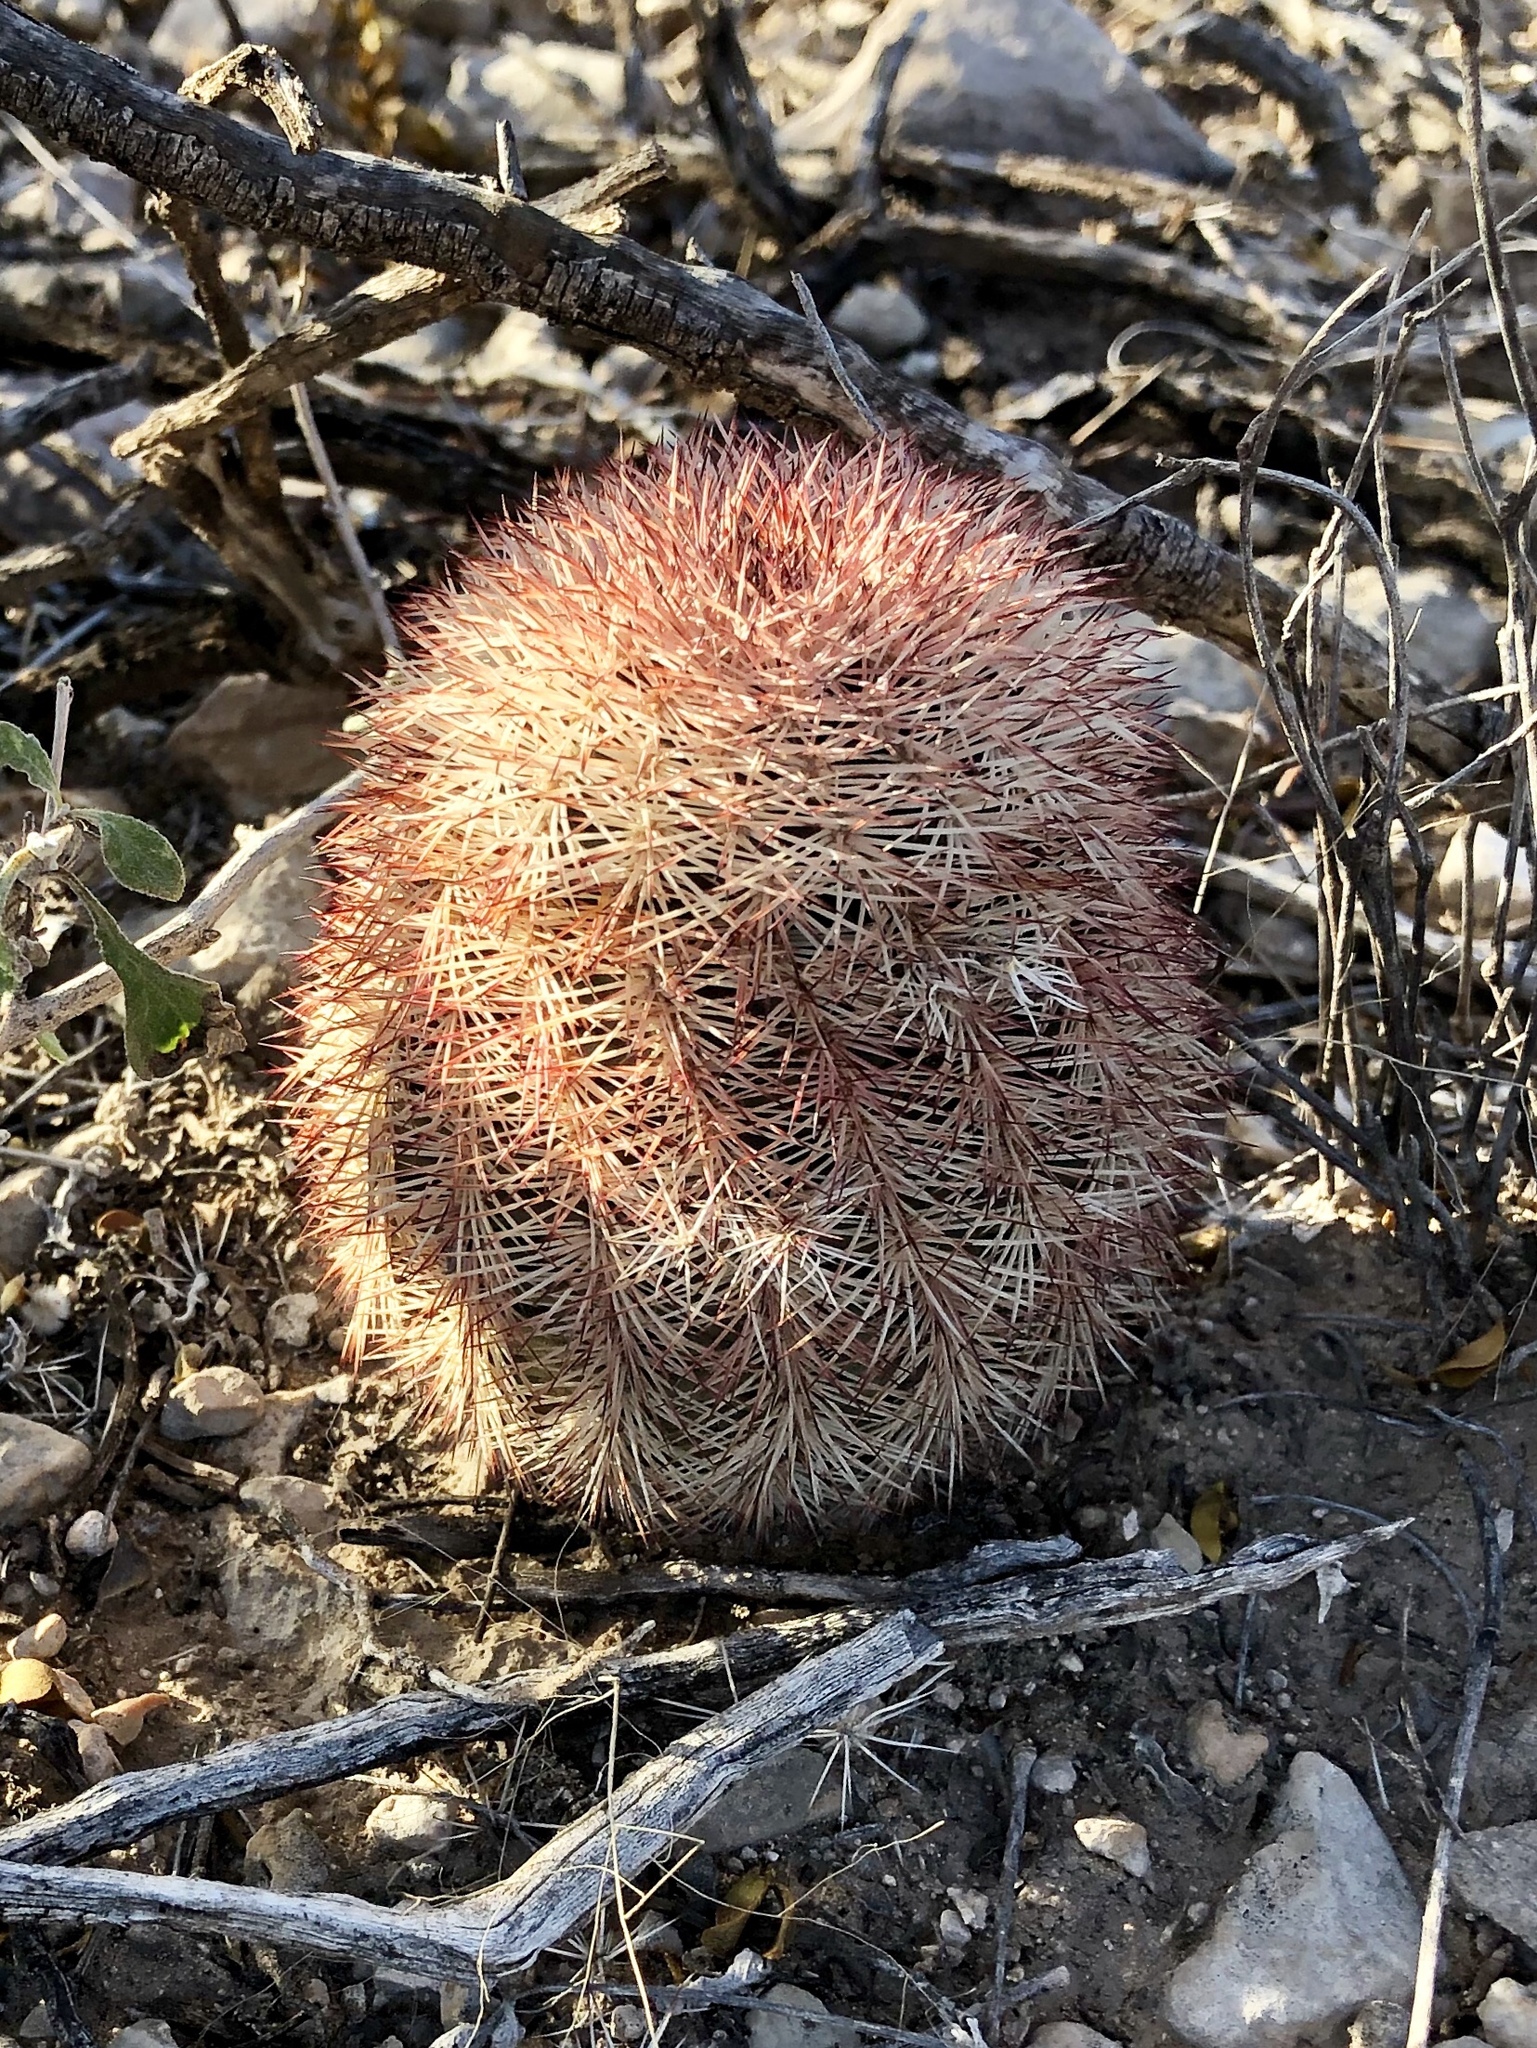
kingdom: Plantae
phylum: Tracheophyta
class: Magnoliopsida
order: Caryophyllales
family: Cactaceae
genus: Echinocereus
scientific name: Echinocereus dasyacanthus
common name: Spiny hedgehog cactus
